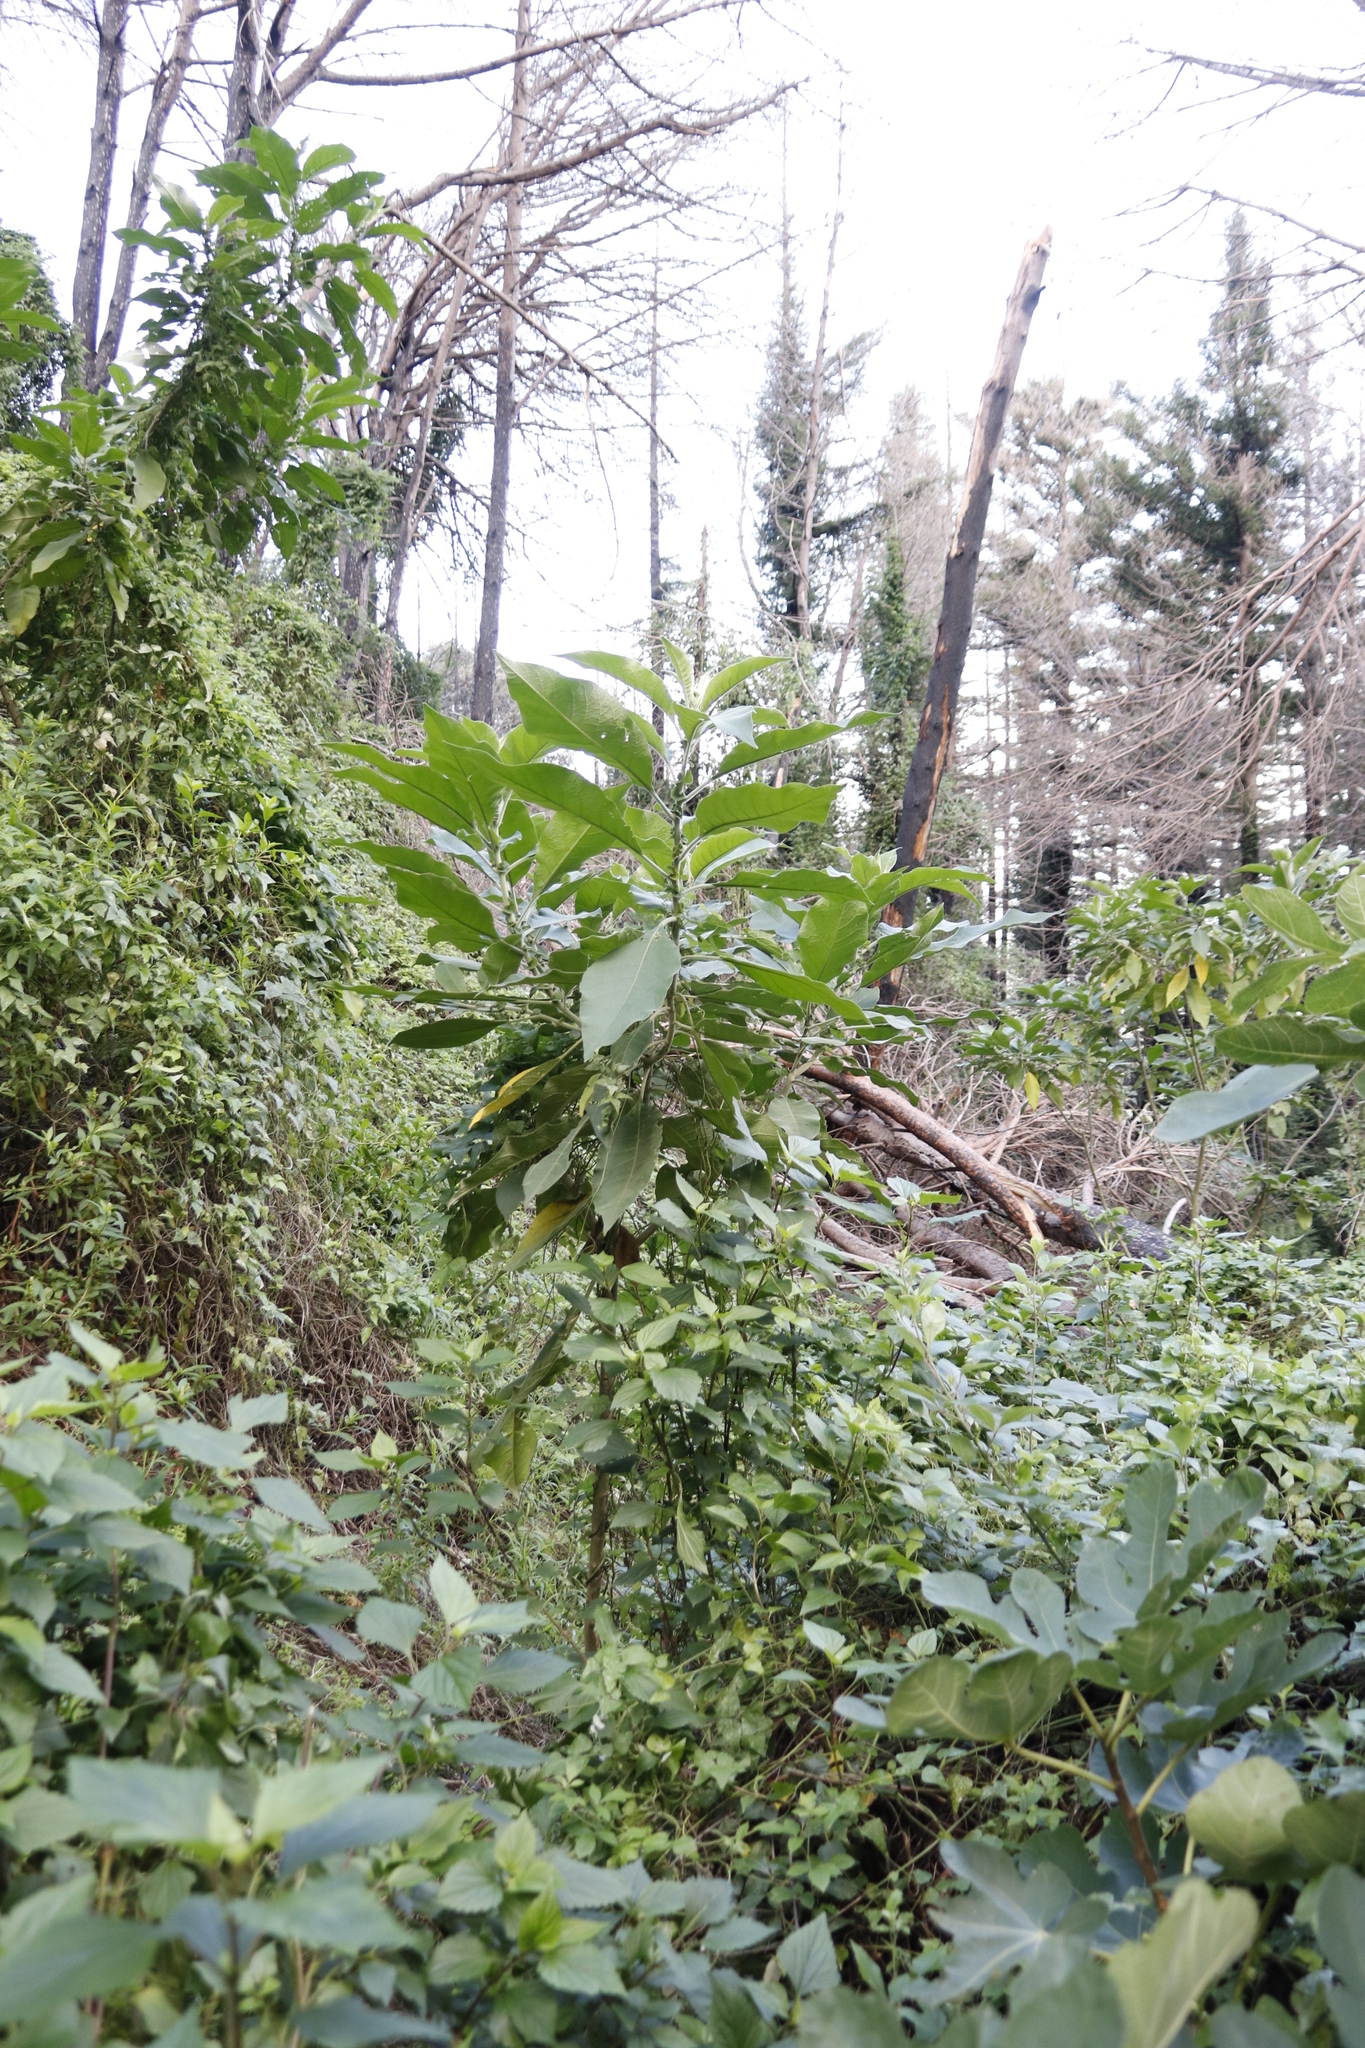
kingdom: Plantae
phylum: Tracheophyta
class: Magnoliopsida
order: Solanales
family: Solanaceae
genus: Solanum
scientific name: Solanum mauritianum
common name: Earleaf nightshade
